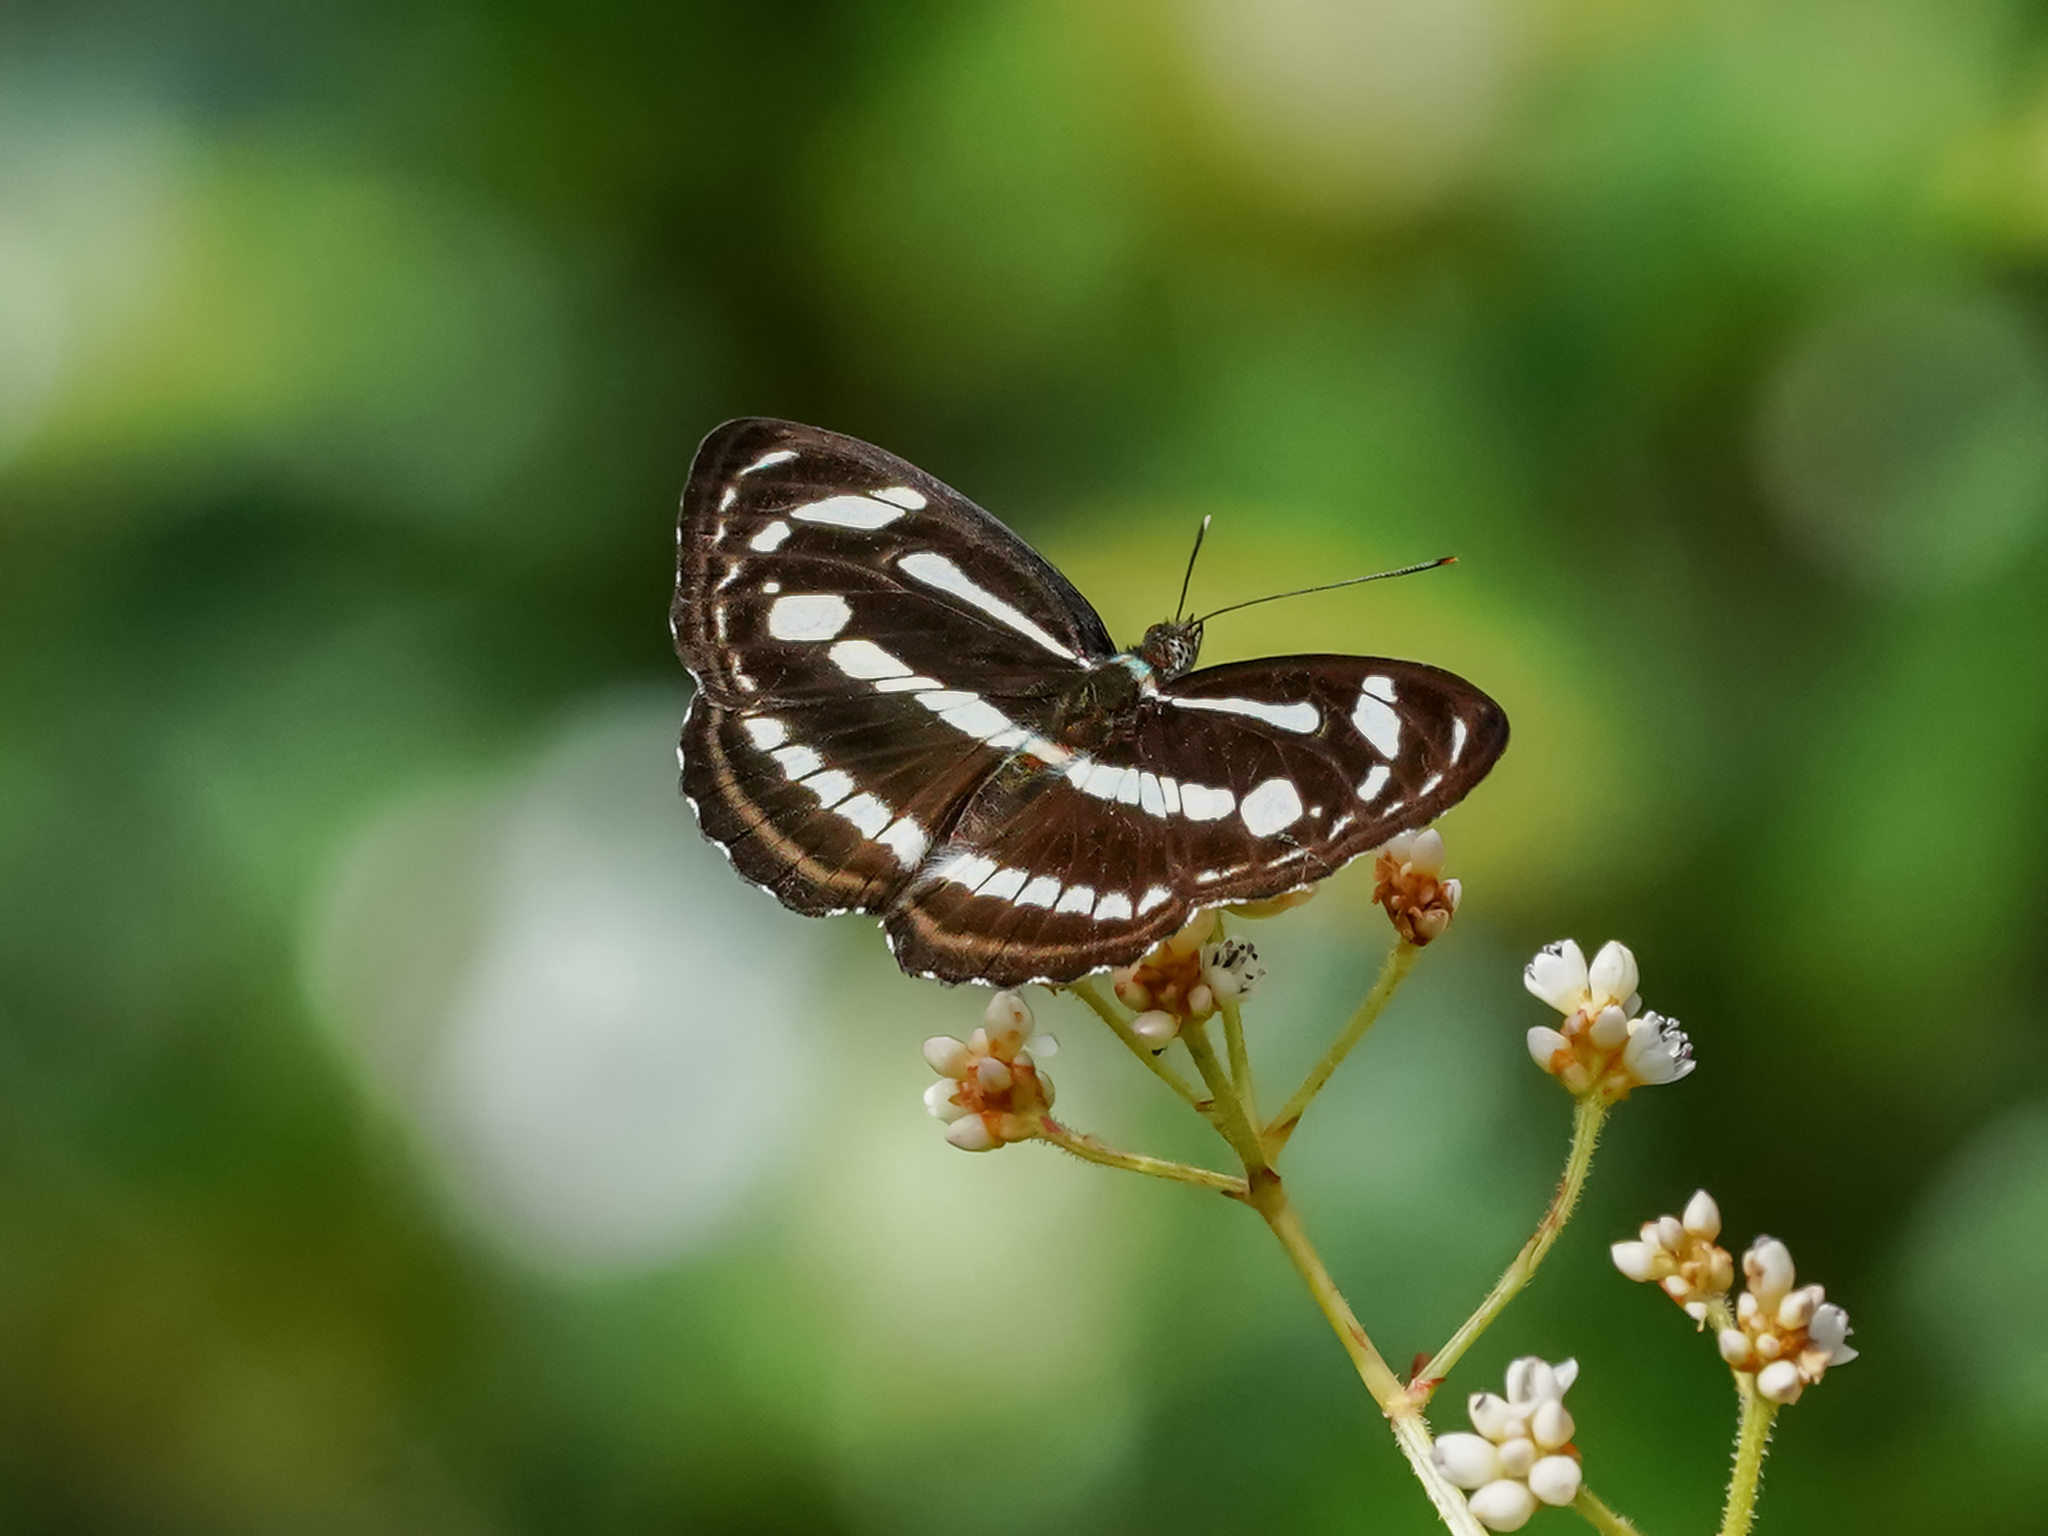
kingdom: Animalia
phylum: Arthropoda
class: Insecta
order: Lepidoptera
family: Nymphalidae
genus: Parathyma
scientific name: Parathyma pravara
